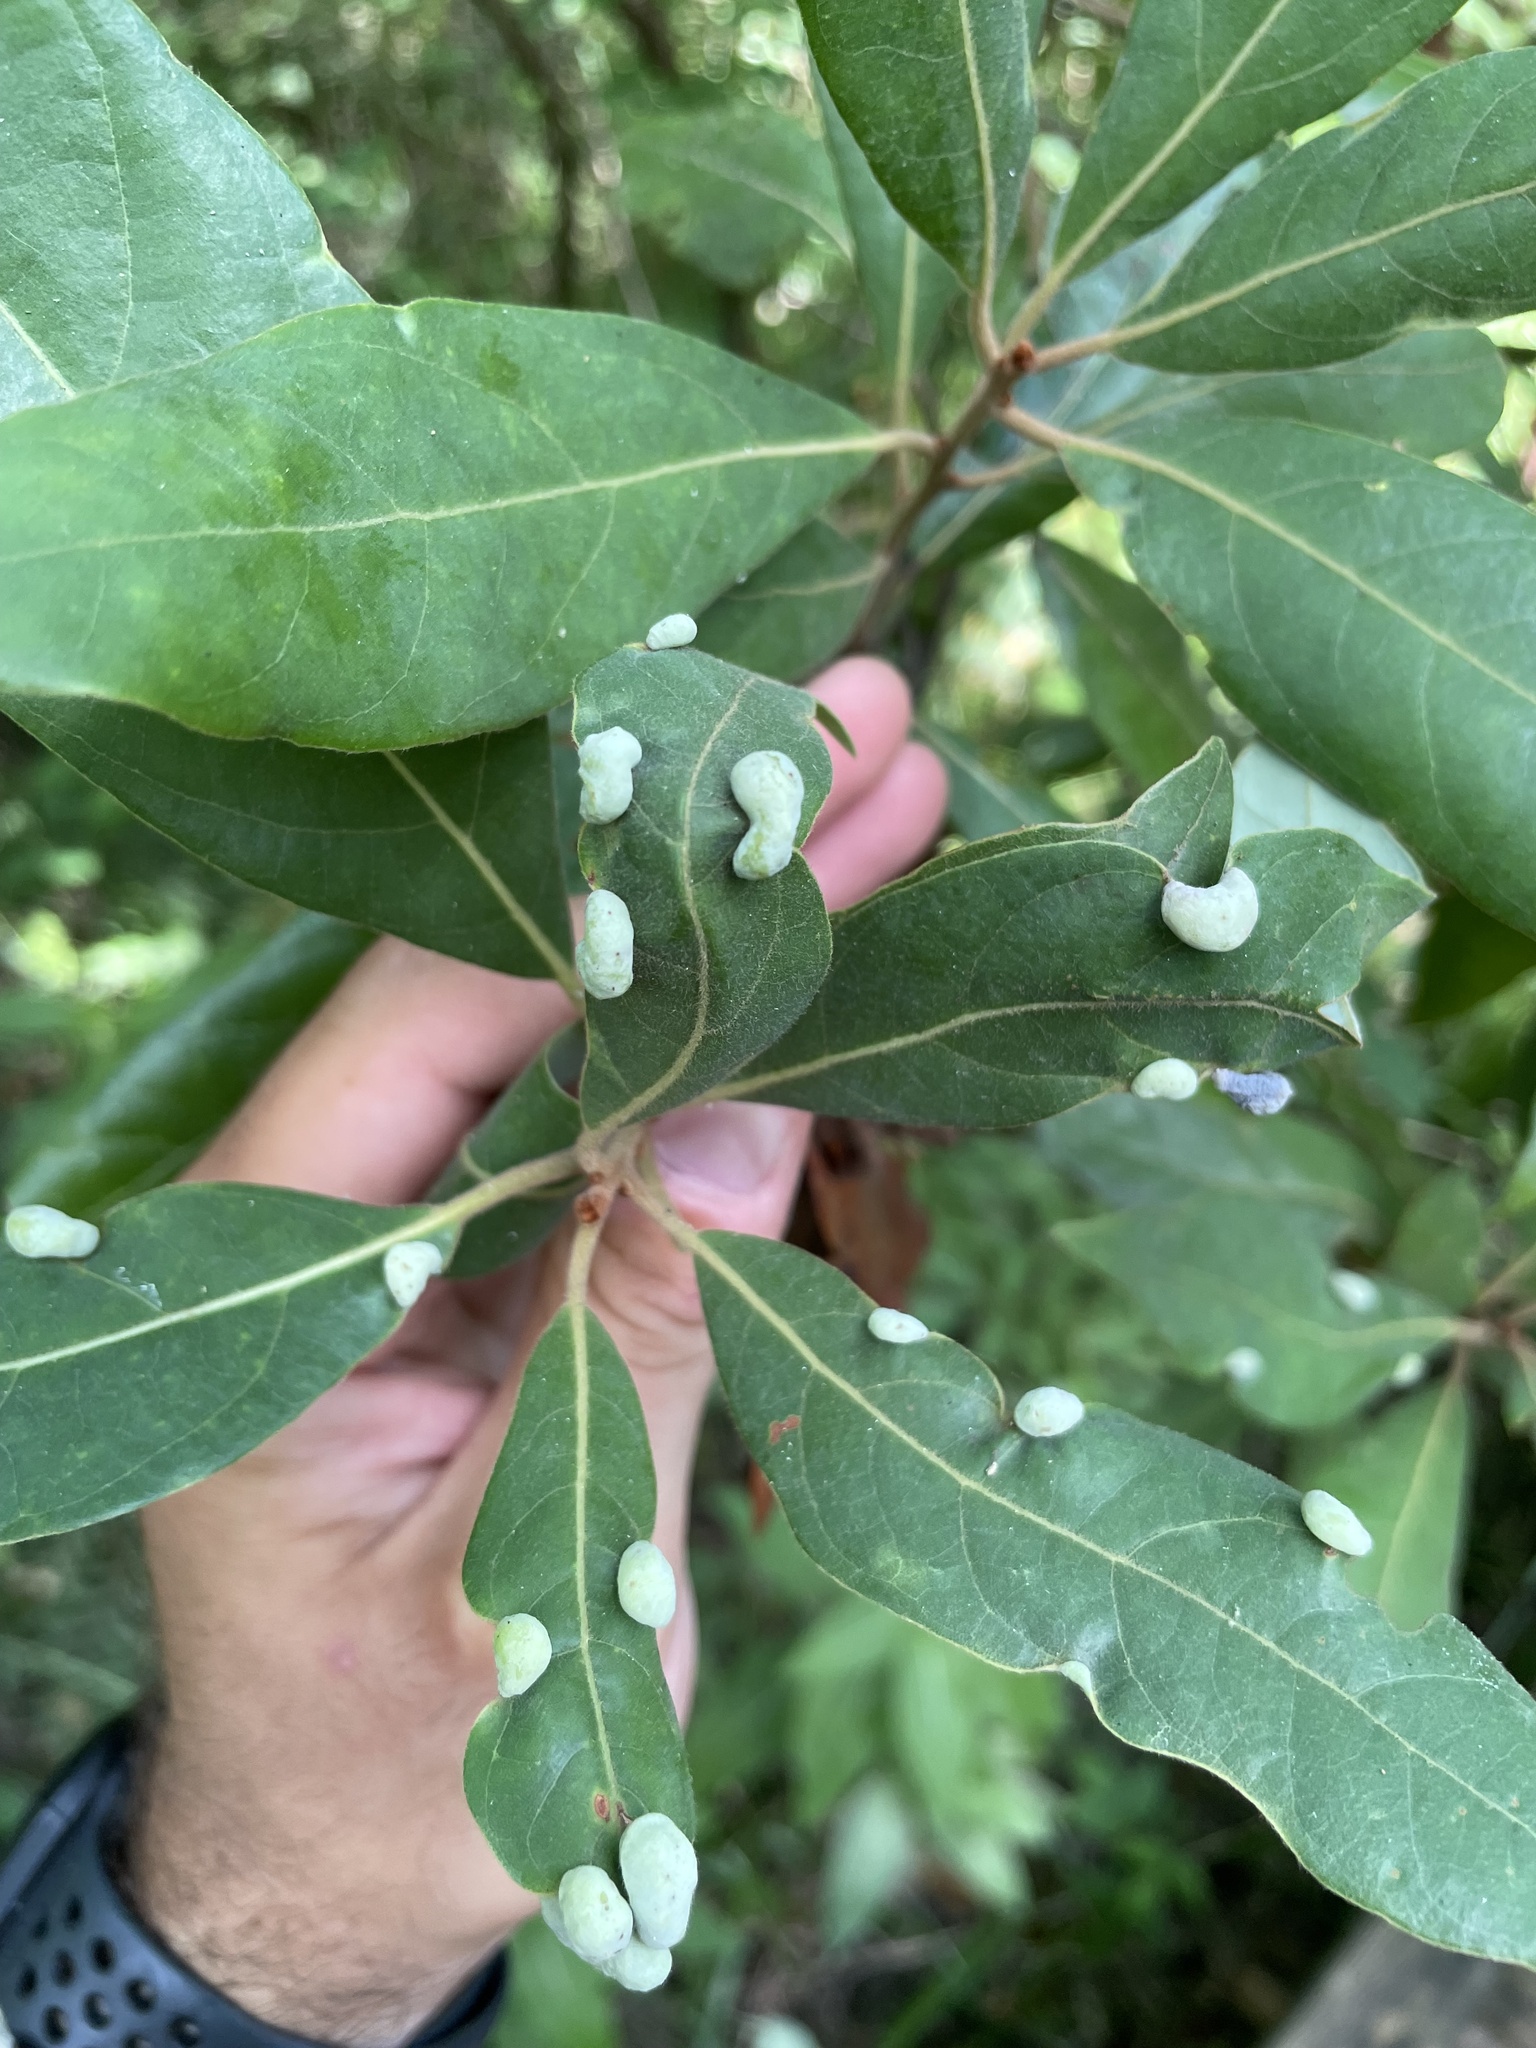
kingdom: Animalia
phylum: Arthropoda
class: Insecta
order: Hemiptera
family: Triozidae
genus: Trioza
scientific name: Trioza magnoliae
